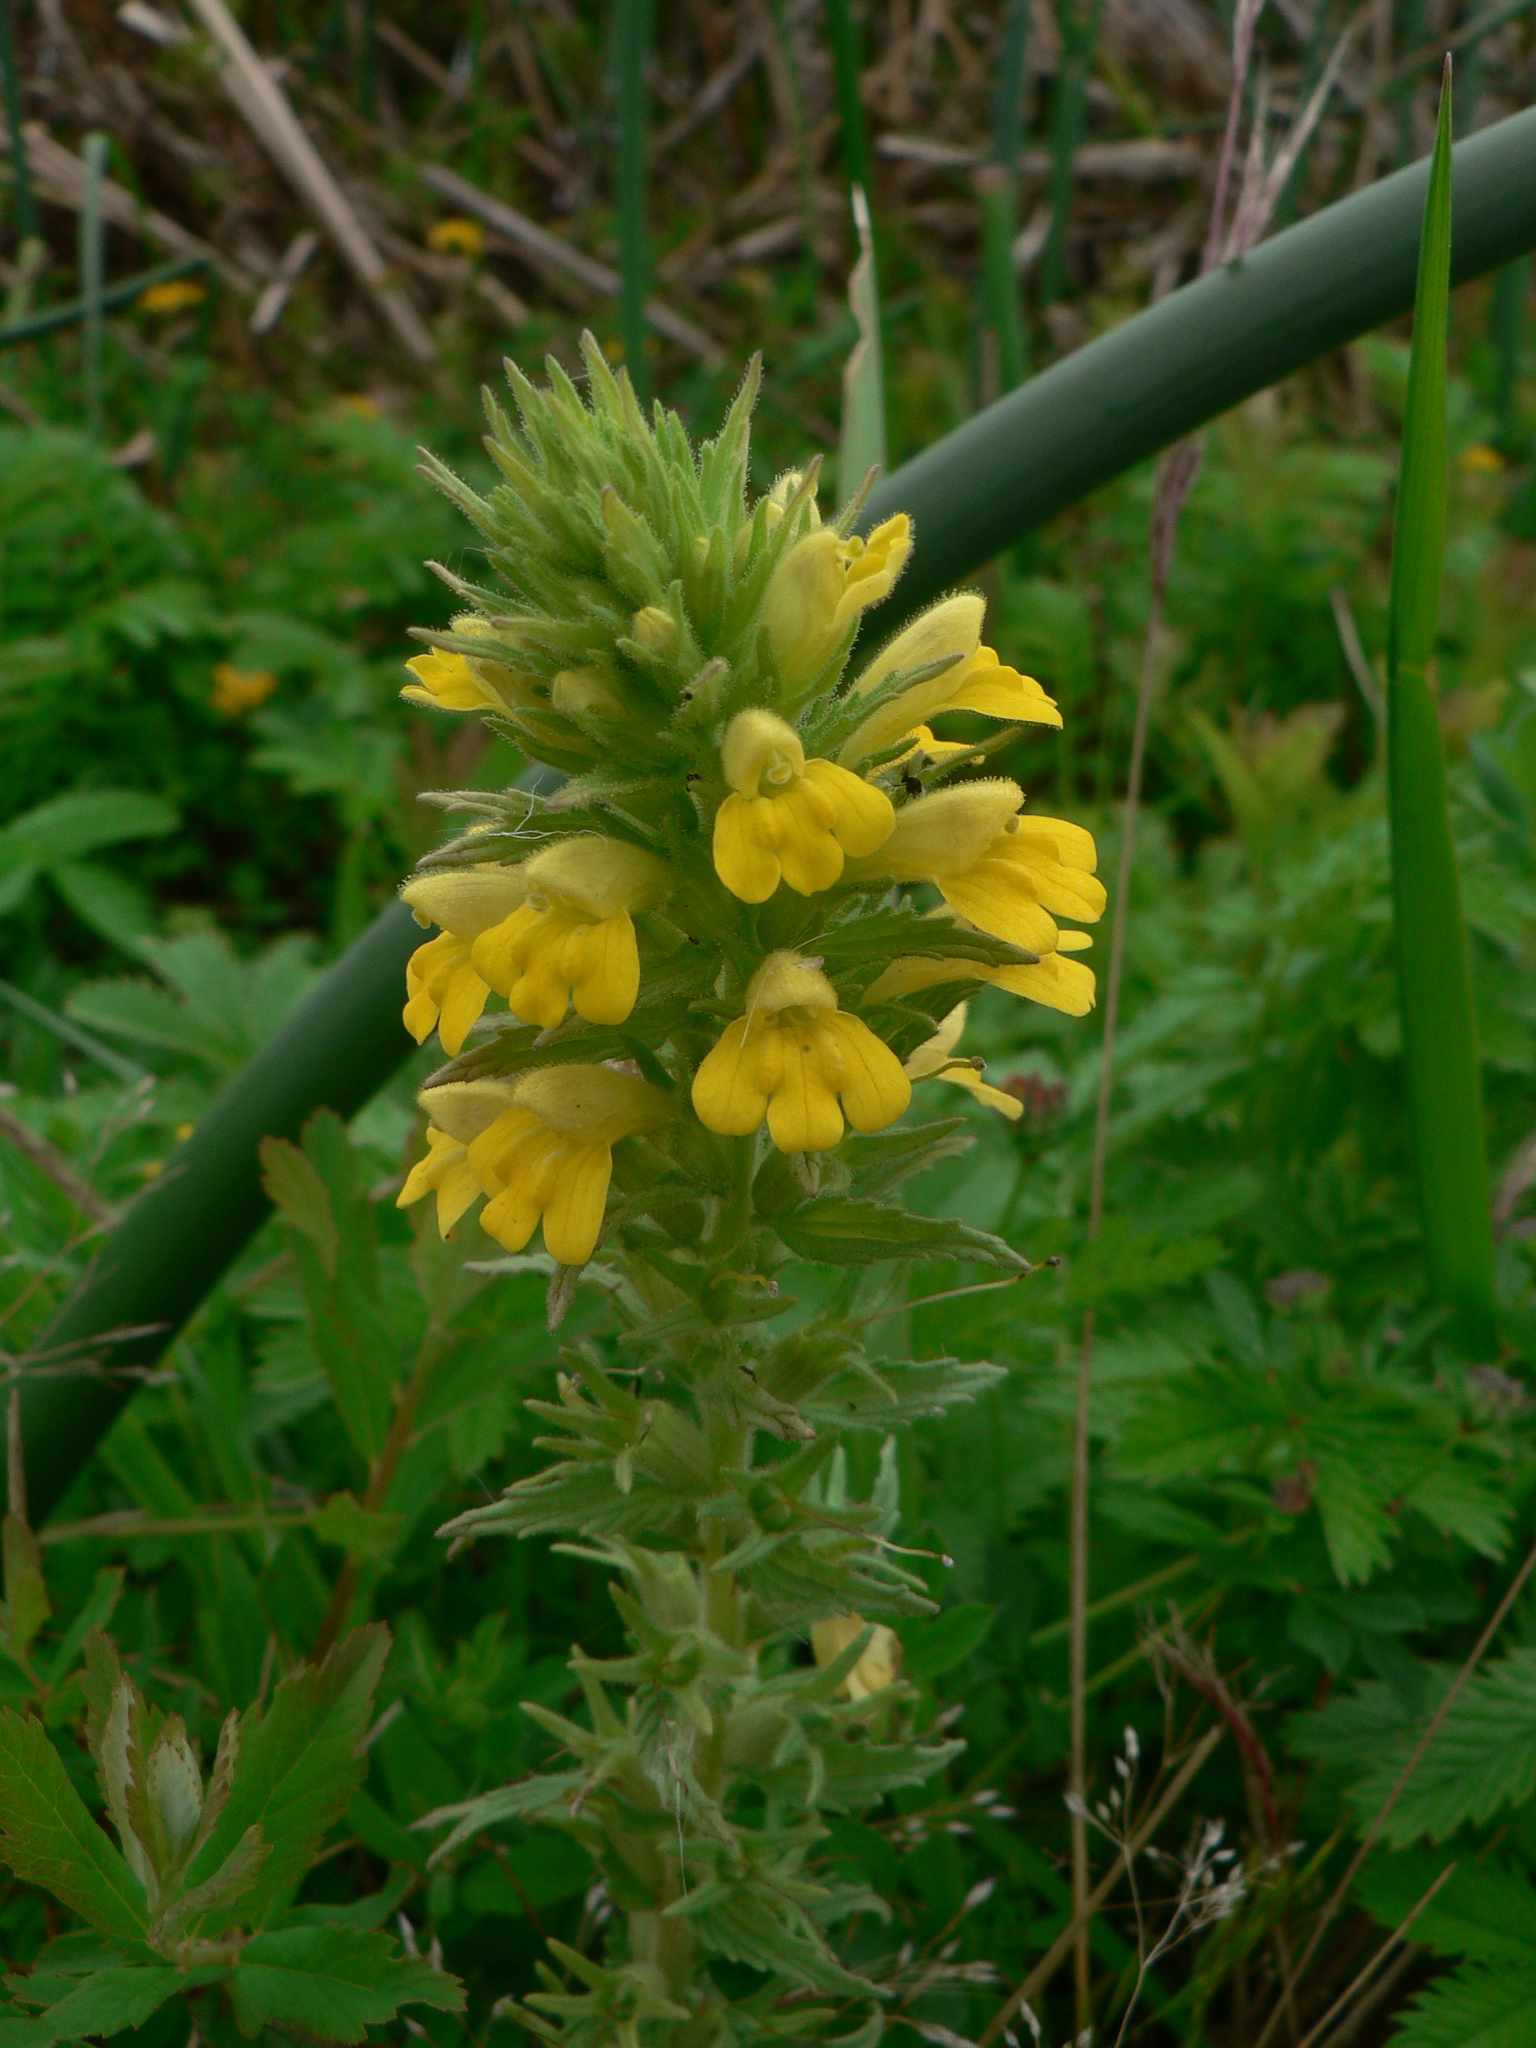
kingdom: Plantae
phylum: Tracheophyta
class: Magnoliopsida
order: Lamiales
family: Orobanchaceae
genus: Bellardia
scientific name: Bellardia viscosa
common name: Sticky parentucellia
